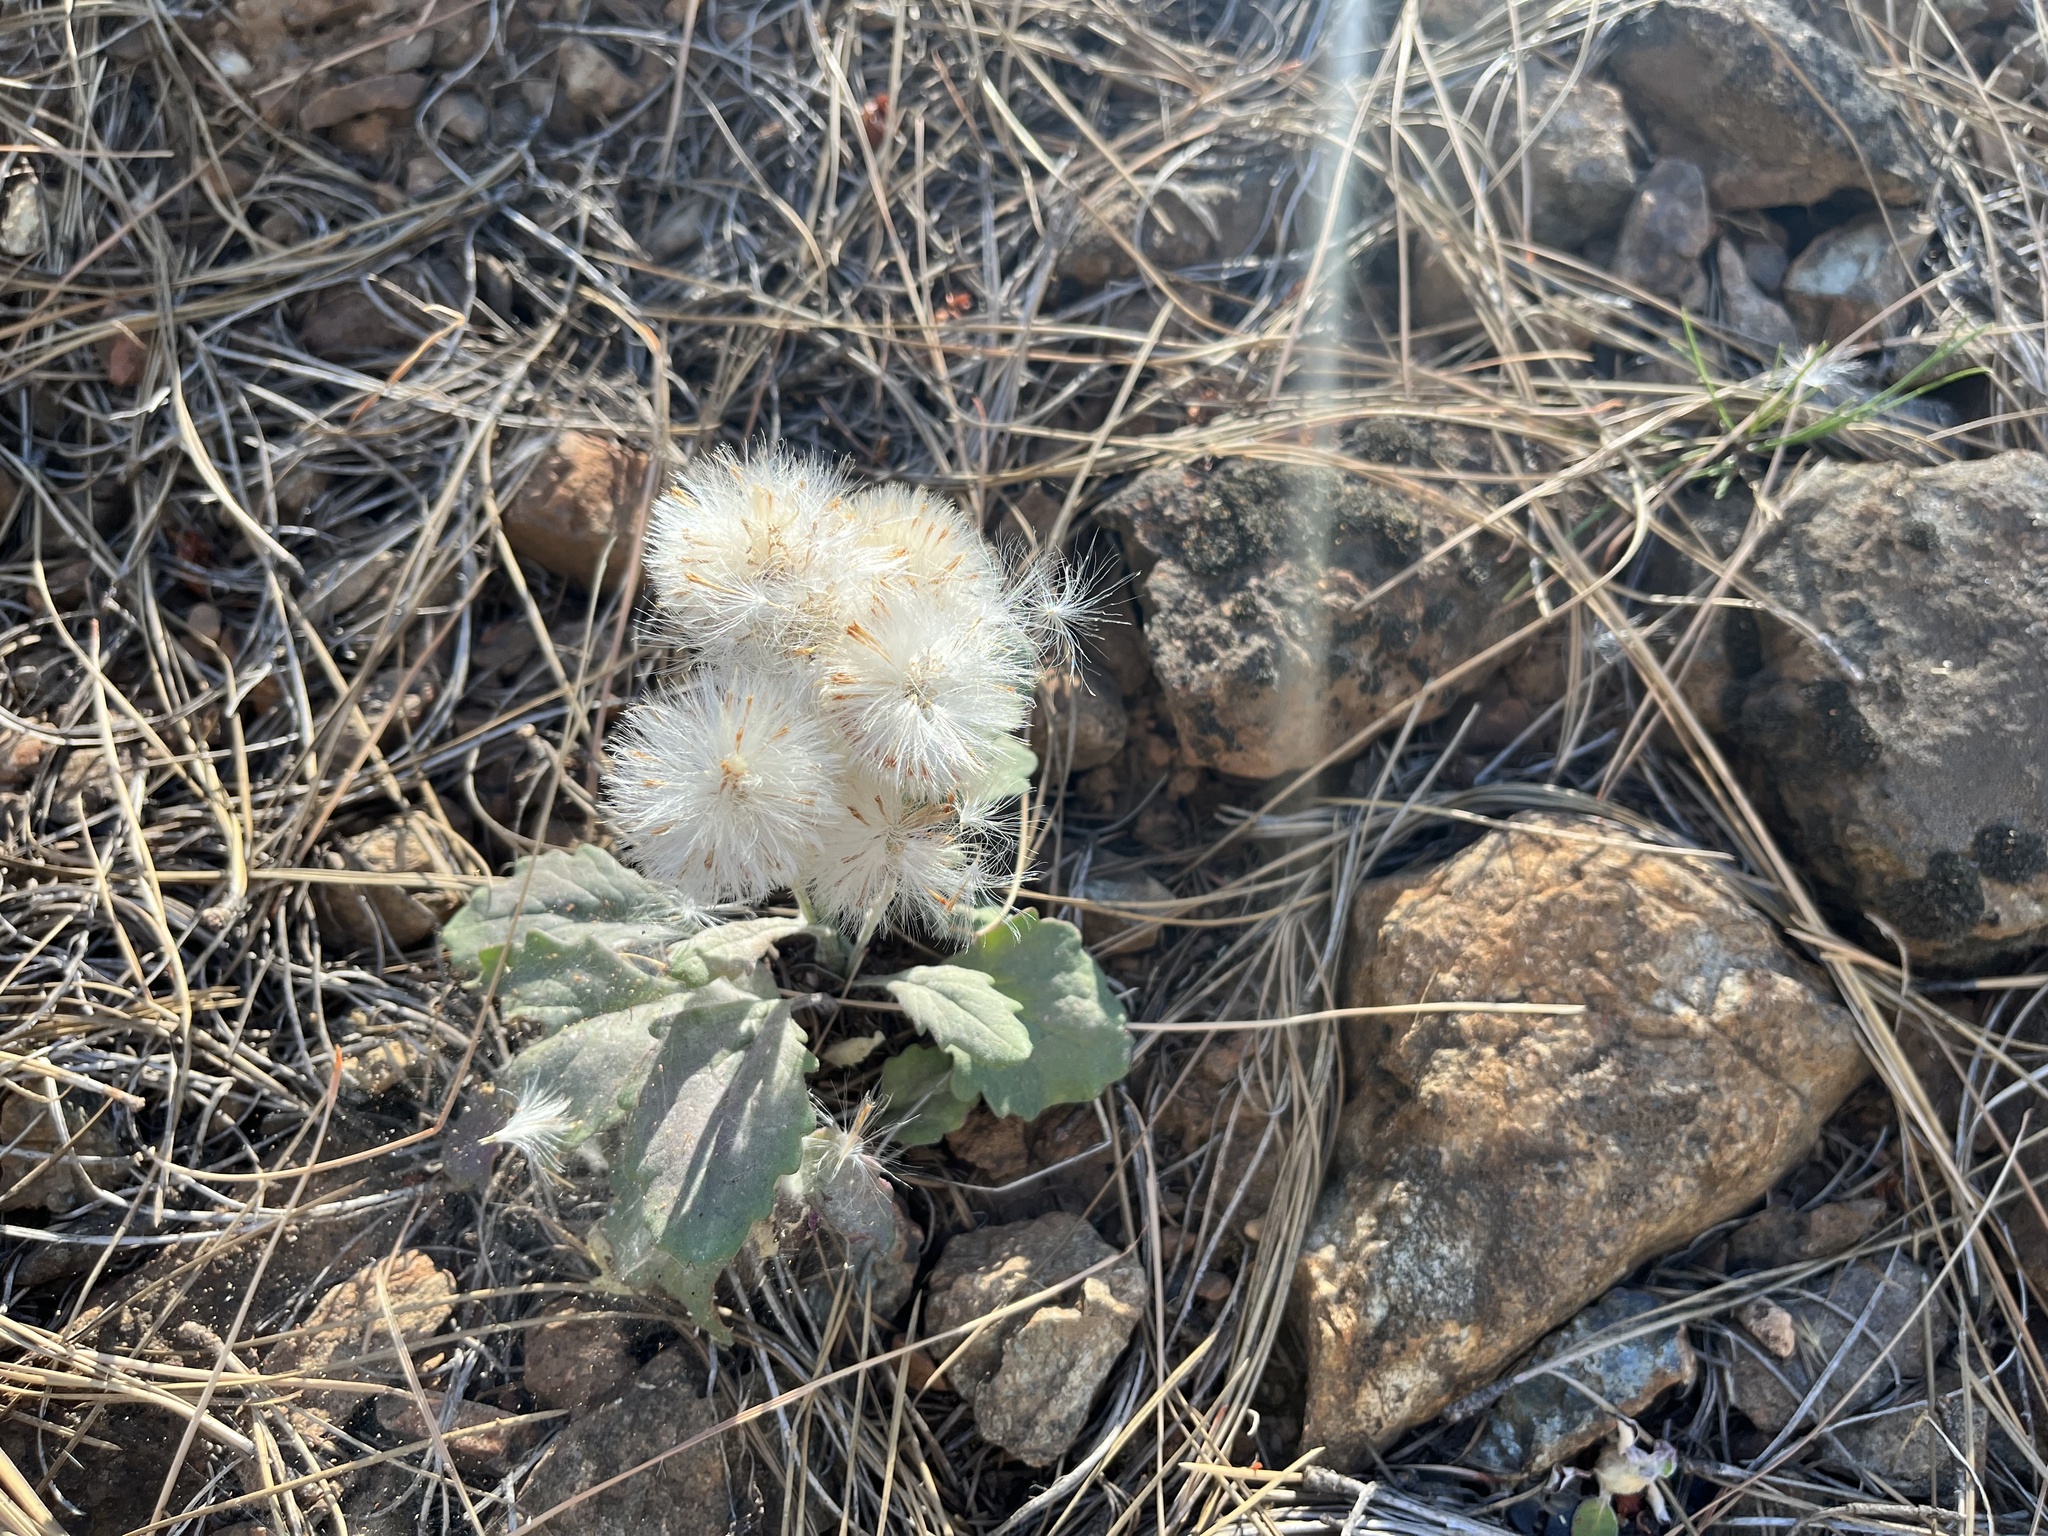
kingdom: Plantae
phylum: Tracheophyta
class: Magnoliopsida
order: Asterales
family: Asteraceae
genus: Packera
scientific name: Packera greenei
